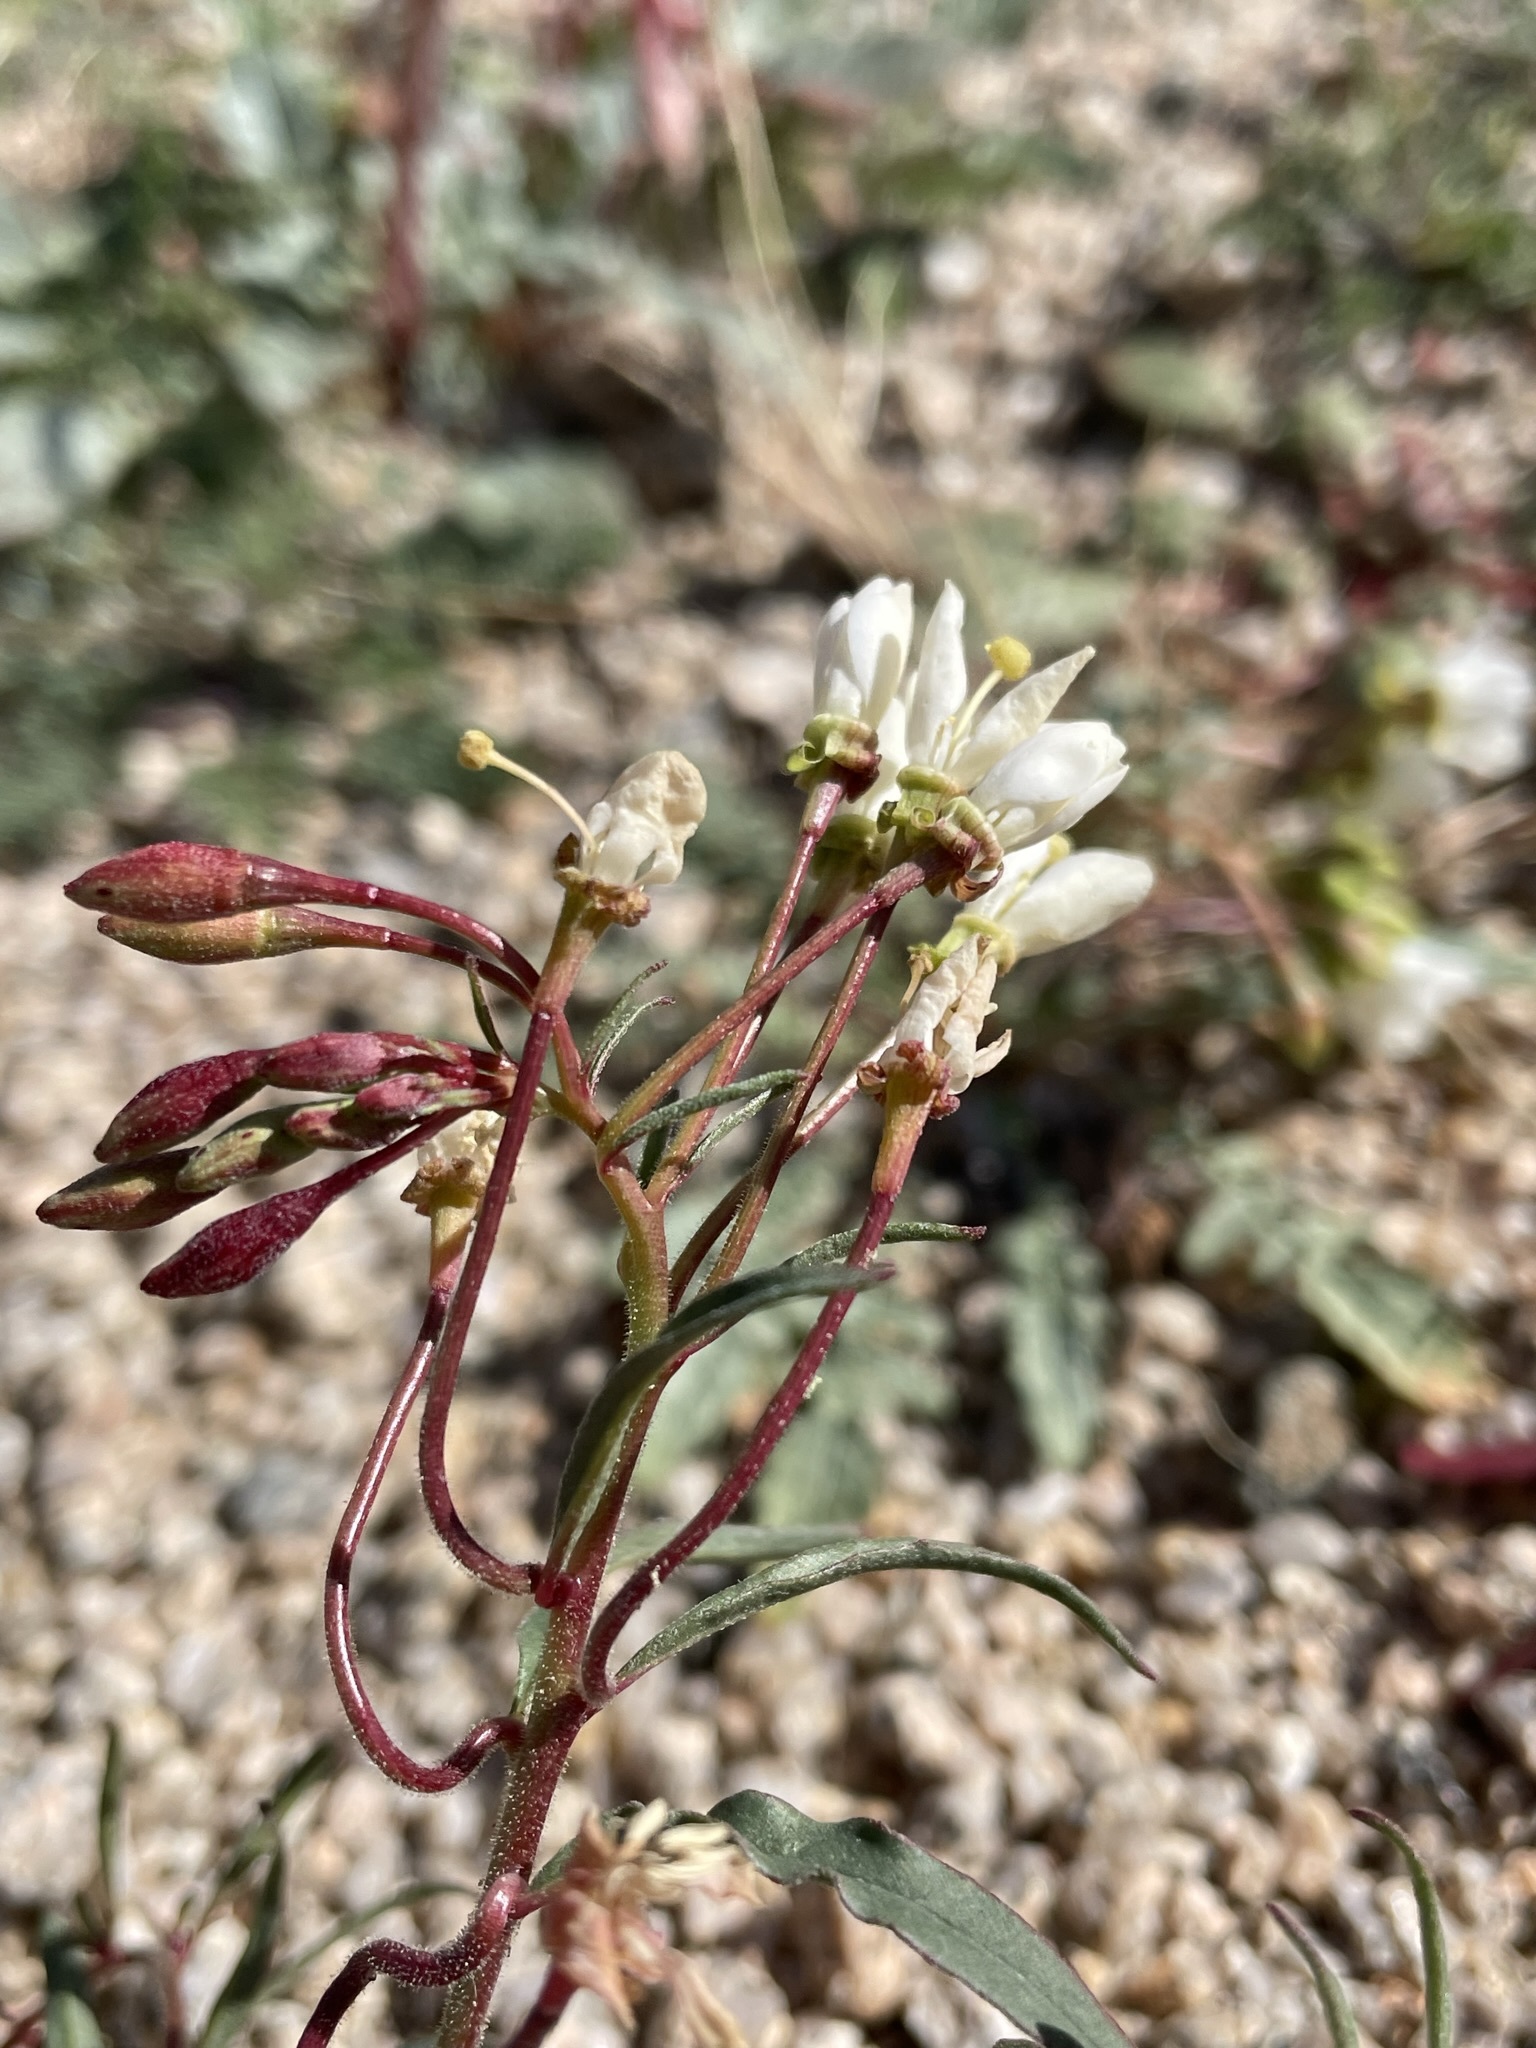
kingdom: Plantae
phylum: Tracheophyta
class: Magnoliopsida
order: Myrtales
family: Onagraceae
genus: Eremothera
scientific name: Eremothera refracta
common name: Narrowleaf suncup
